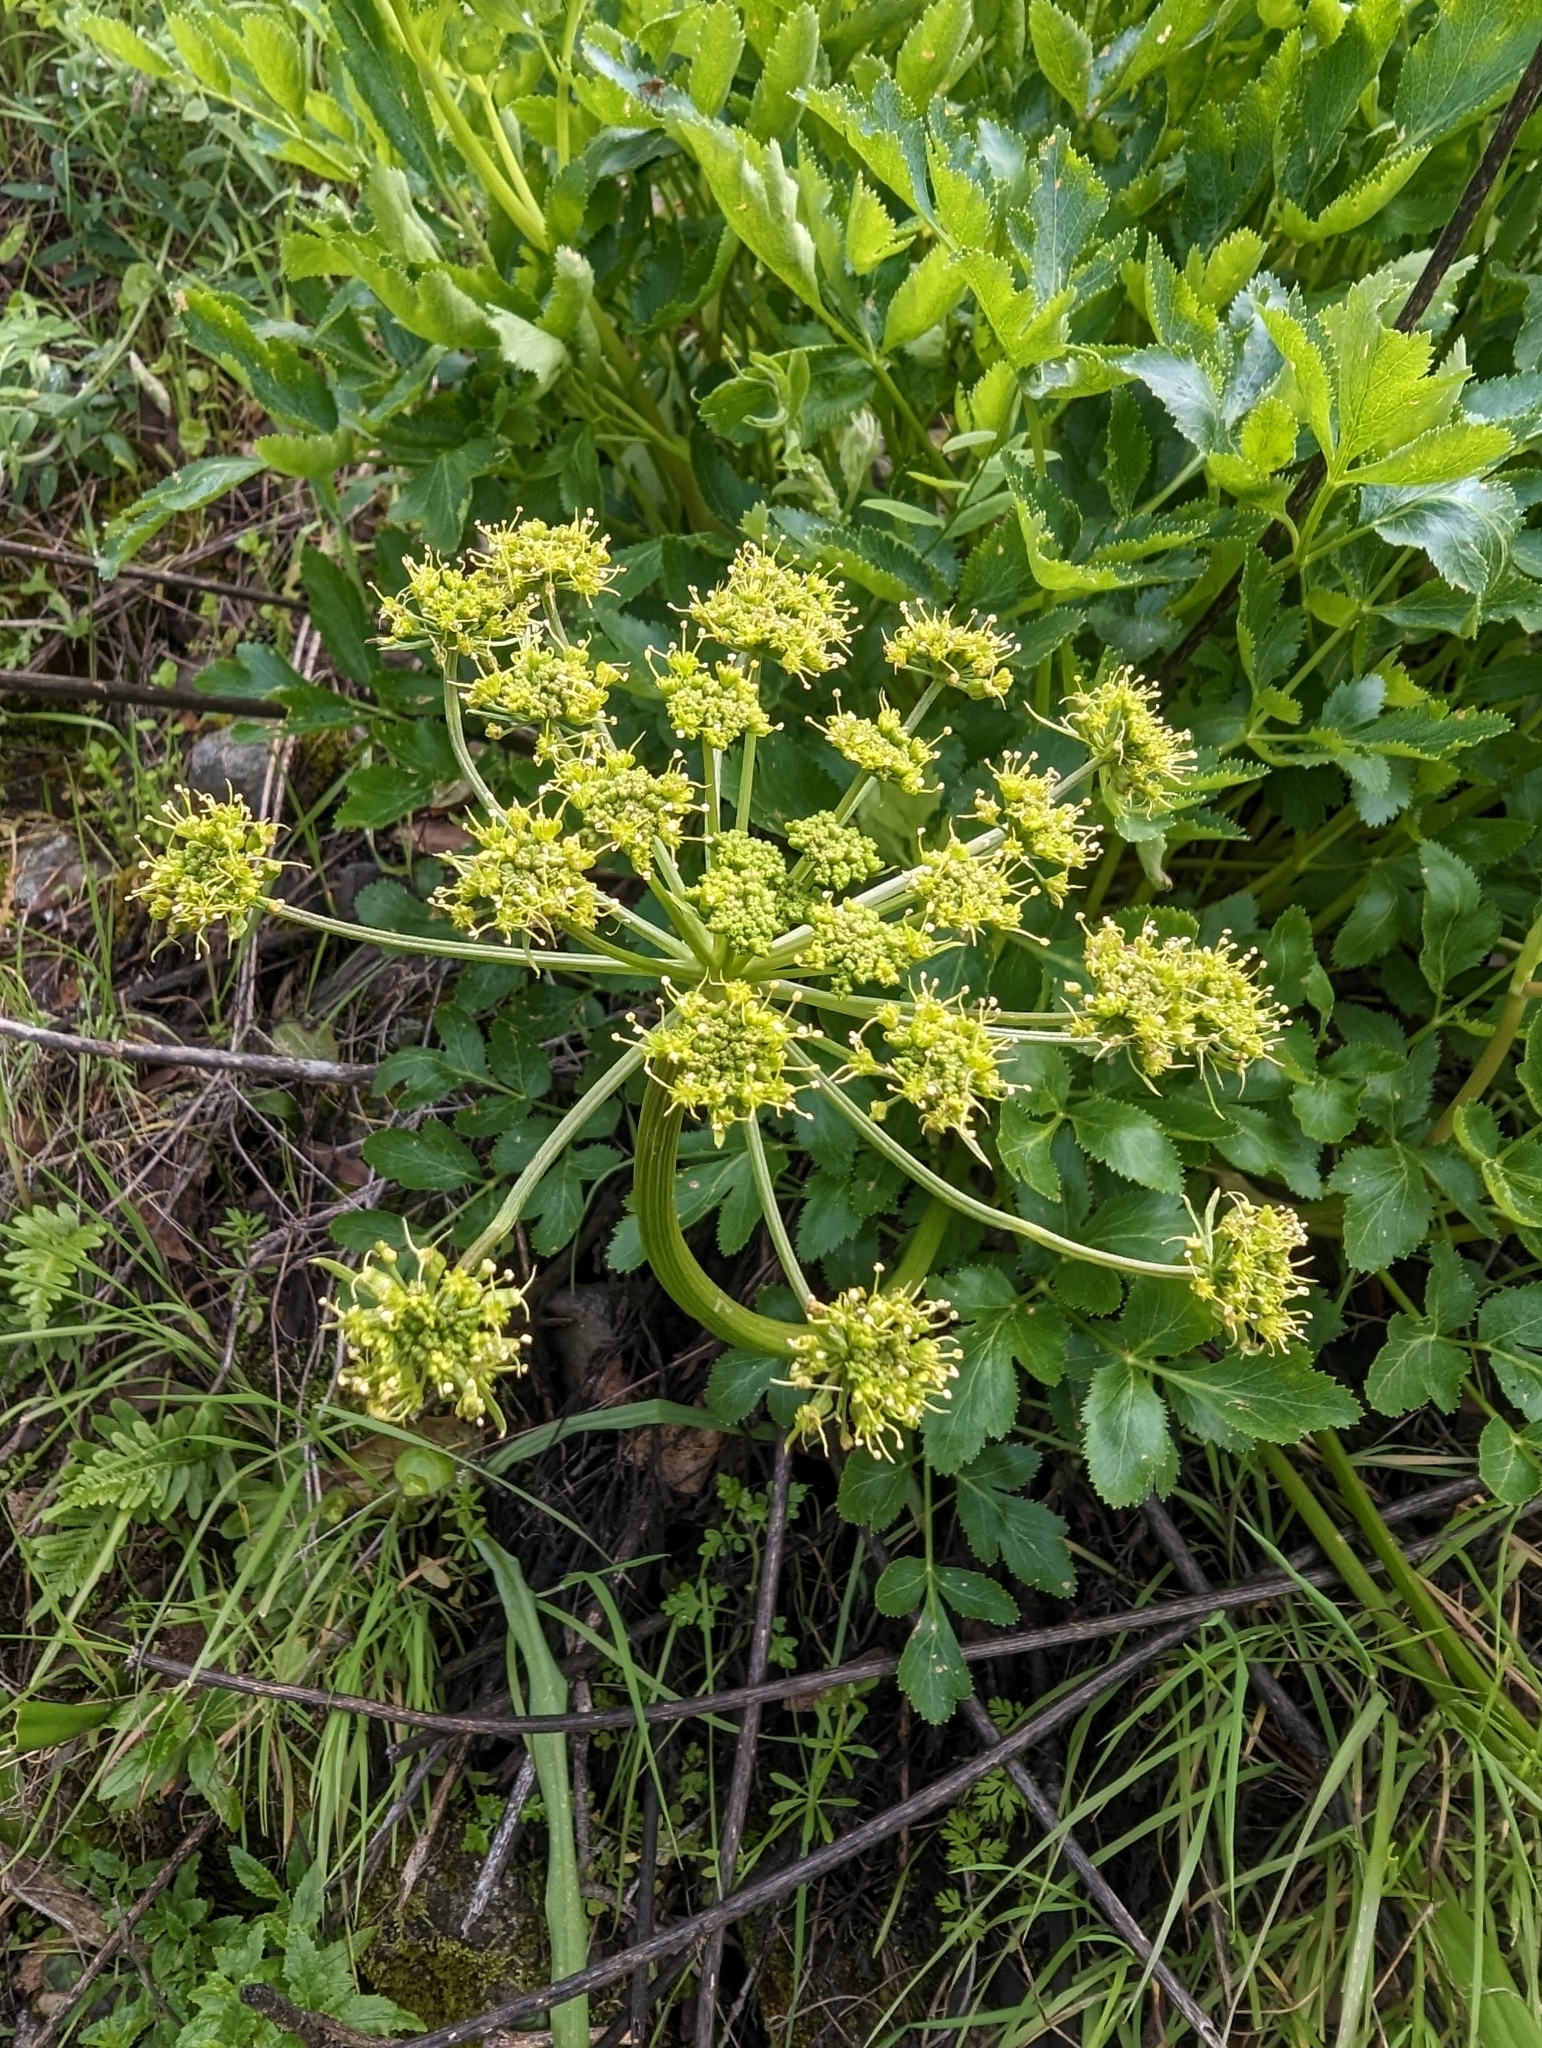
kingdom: Plantae
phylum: Tracheophyta
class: Magnoliopsida
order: Apiales
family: Apiaceae
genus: Tauschia
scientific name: Tauschia hartwegii
